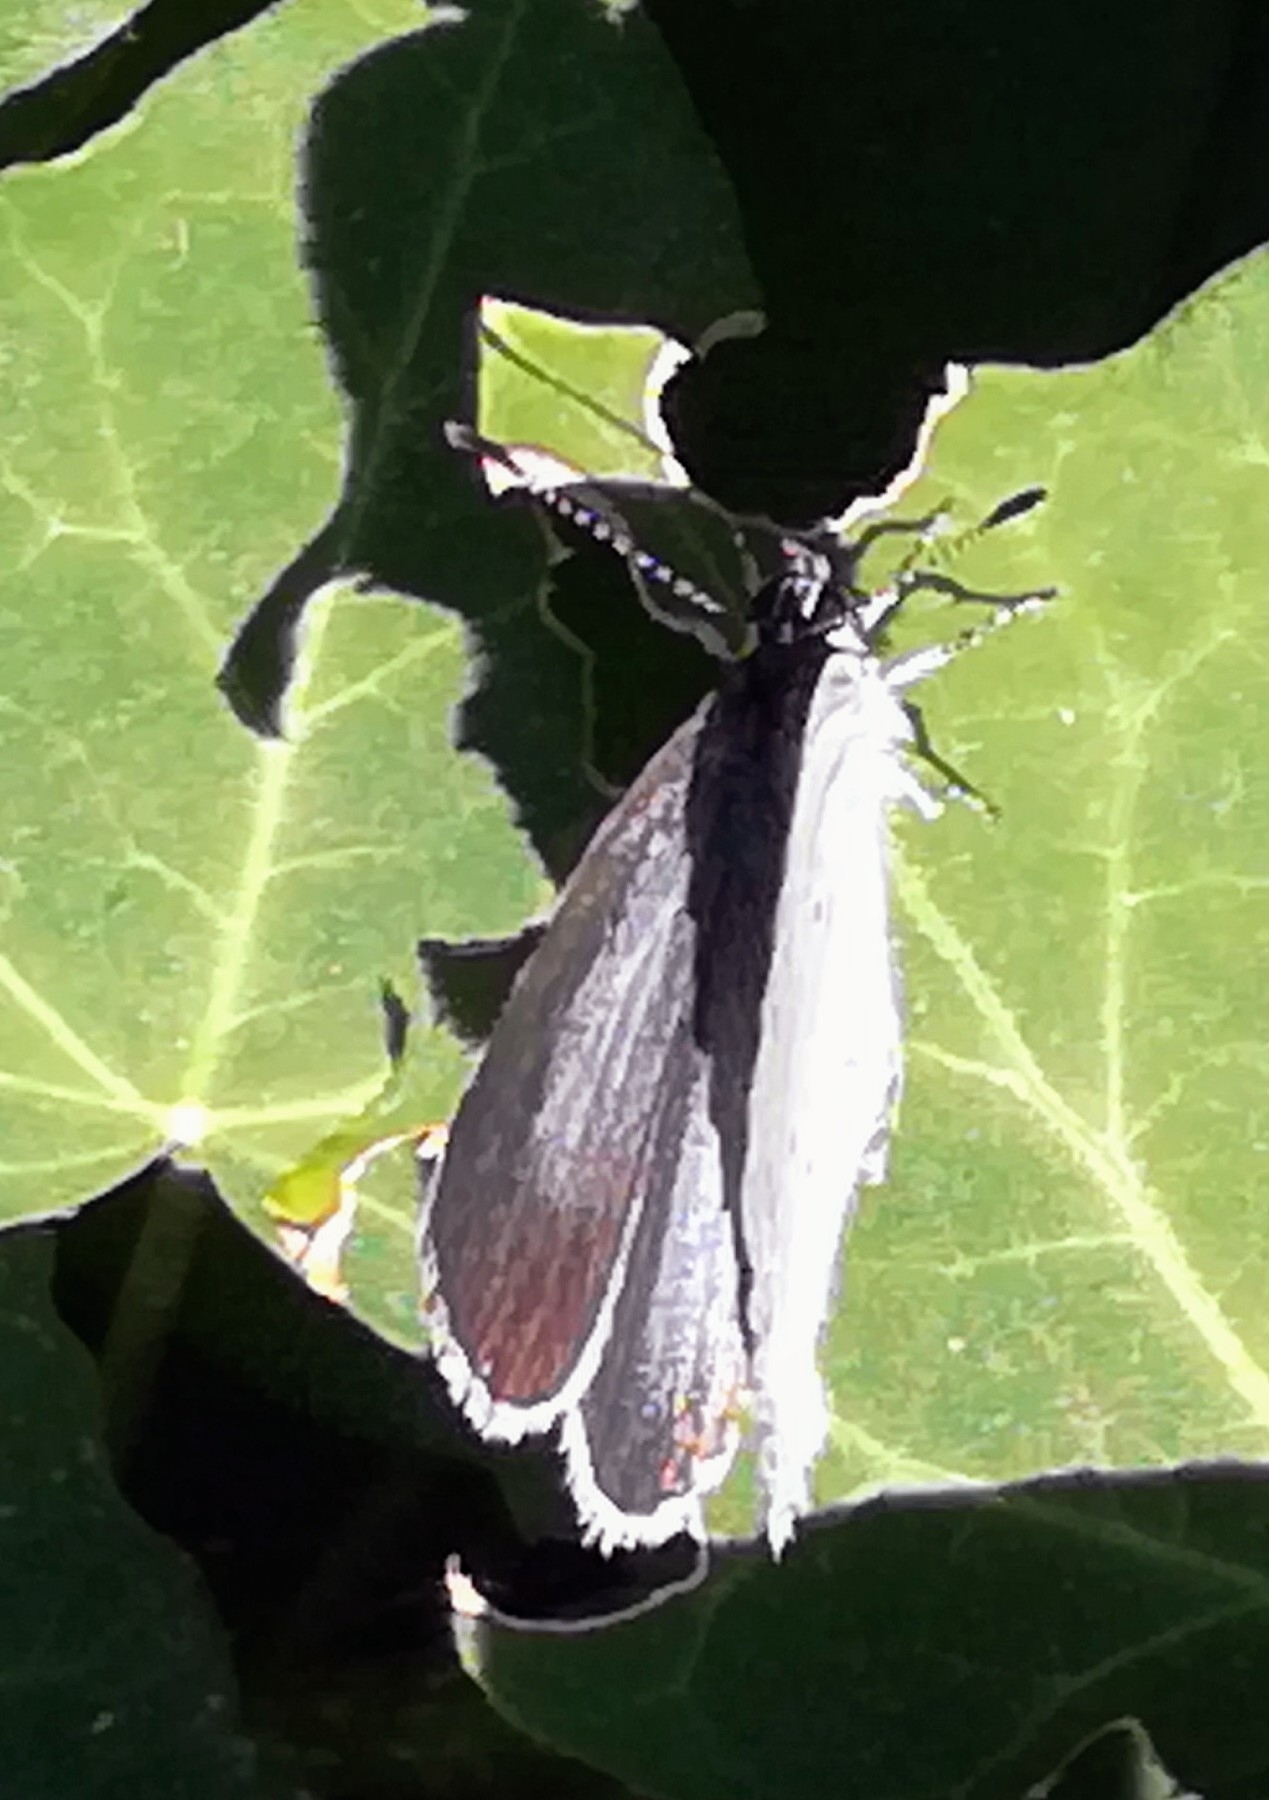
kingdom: Animalia
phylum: Arthropoda
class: Insecta
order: Lepidoptera
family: Lycaenidae
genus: Celastrina
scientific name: Celastrina argiolus
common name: Holly blue
